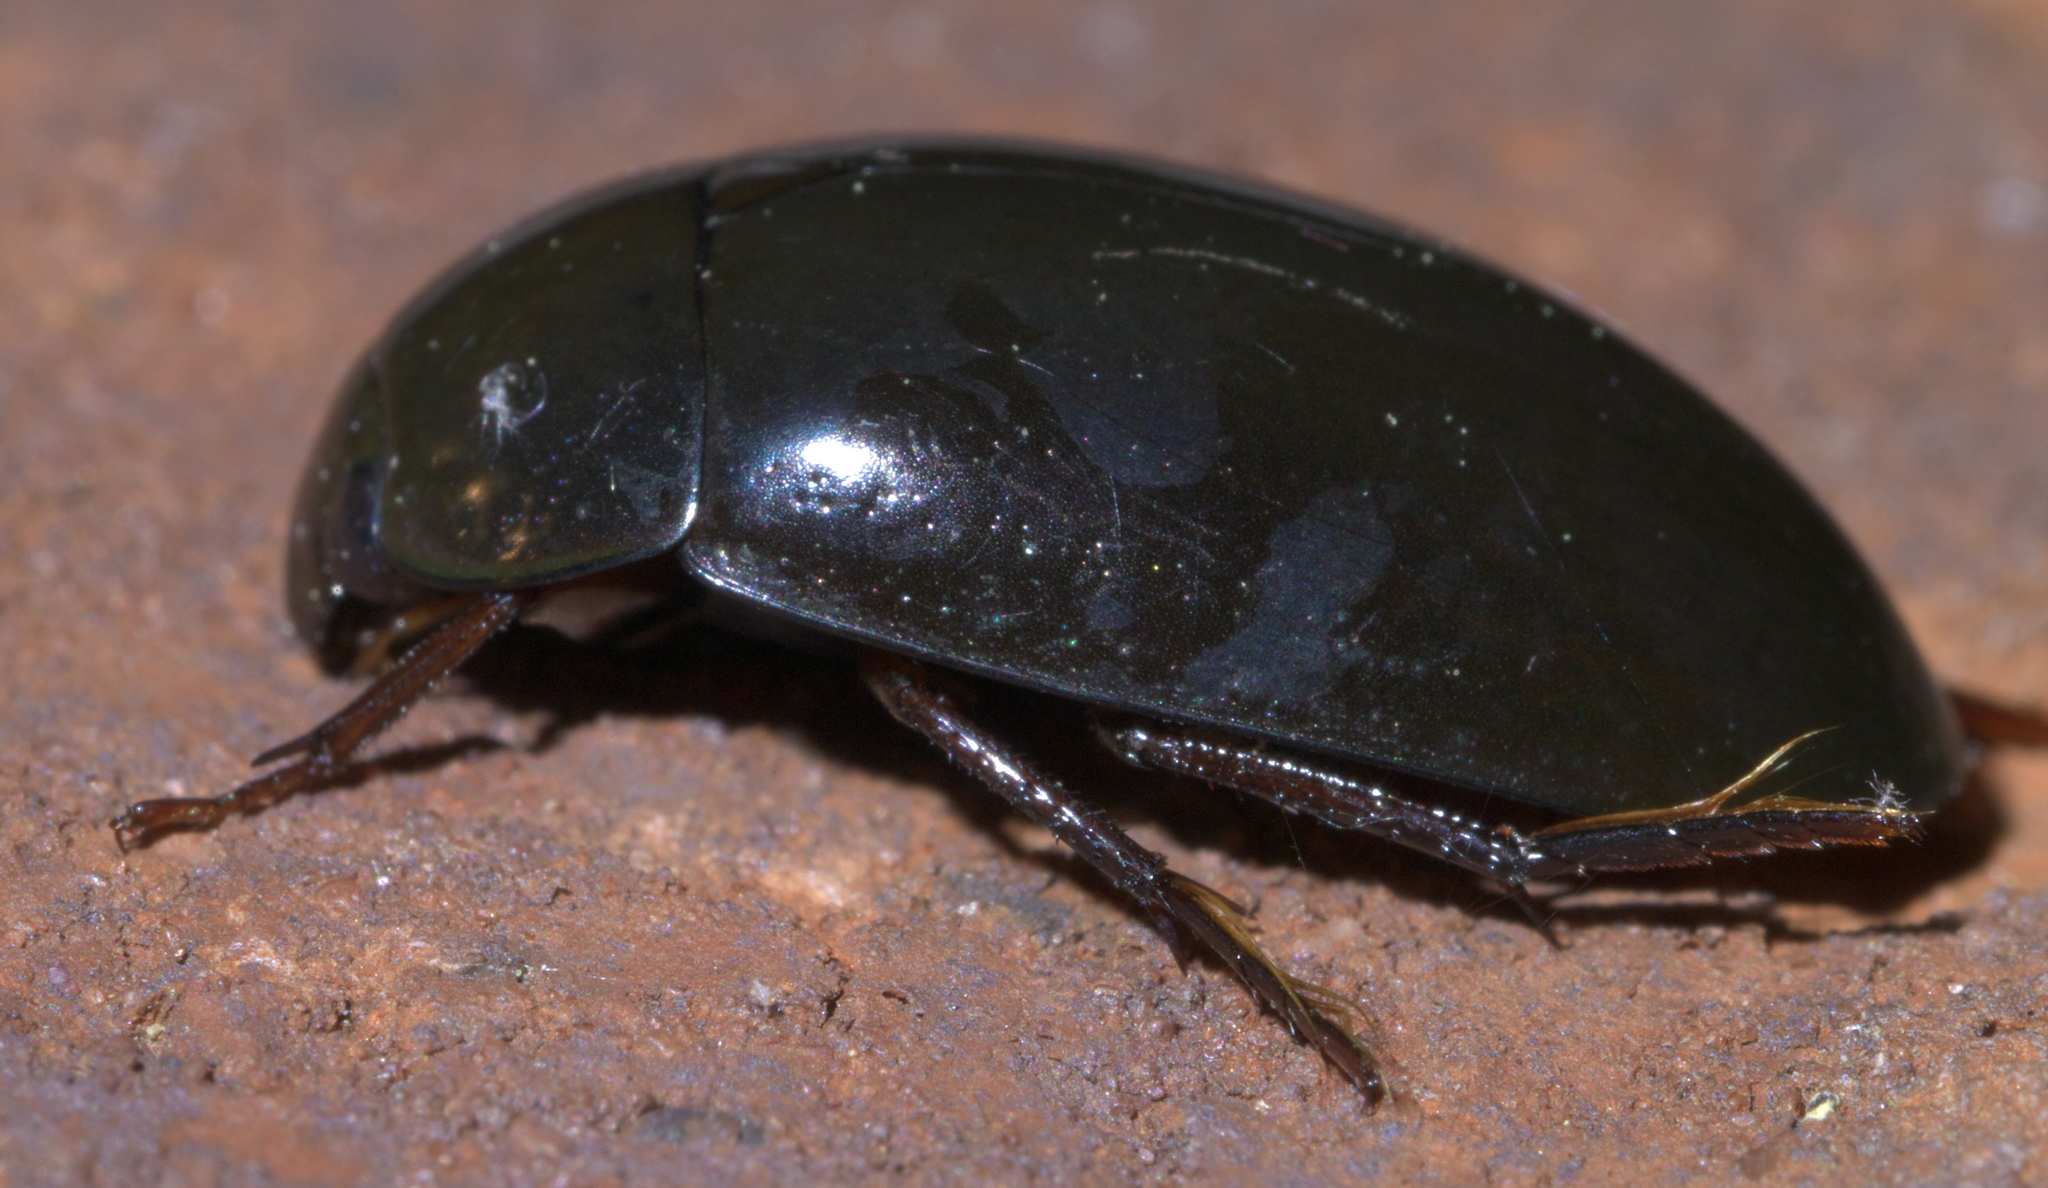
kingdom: Animalia
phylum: Arthropoda
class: Insecta
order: Coleoptera
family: Hydrophilidae
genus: Hydrochara
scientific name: Hydrochara
